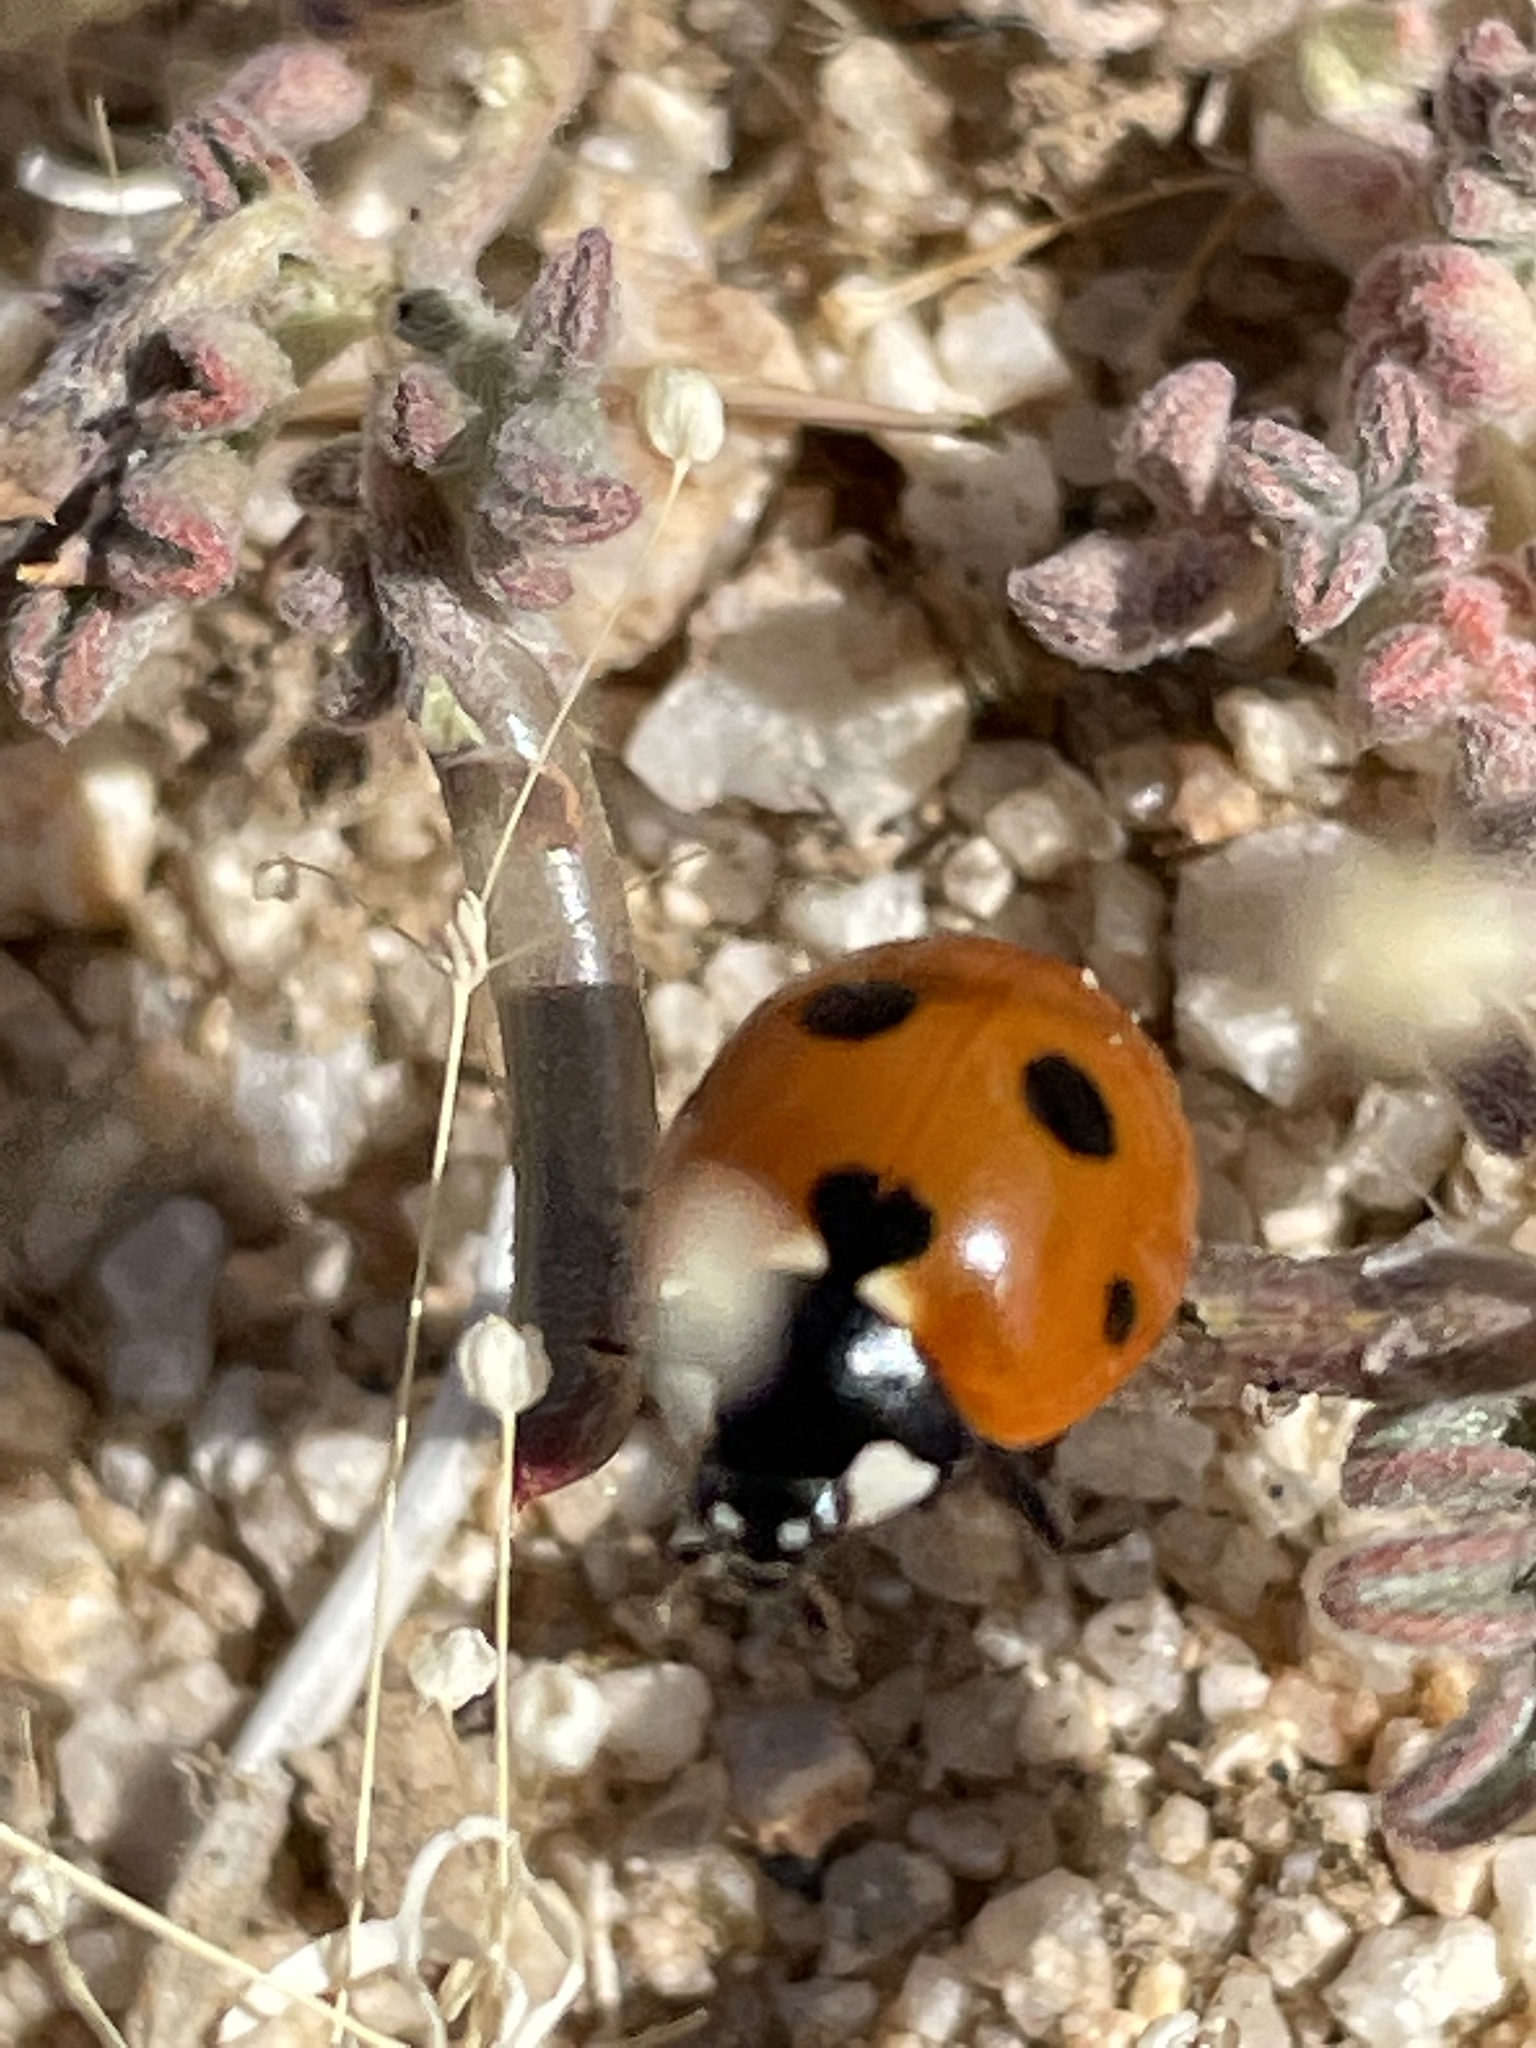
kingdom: Animalia
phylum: Arthropoda
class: Insecta
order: Coleoptera
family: Coccinellidae
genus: Coccinella
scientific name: Coccinella septempunctata
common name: Sevenspotted lady beetle
